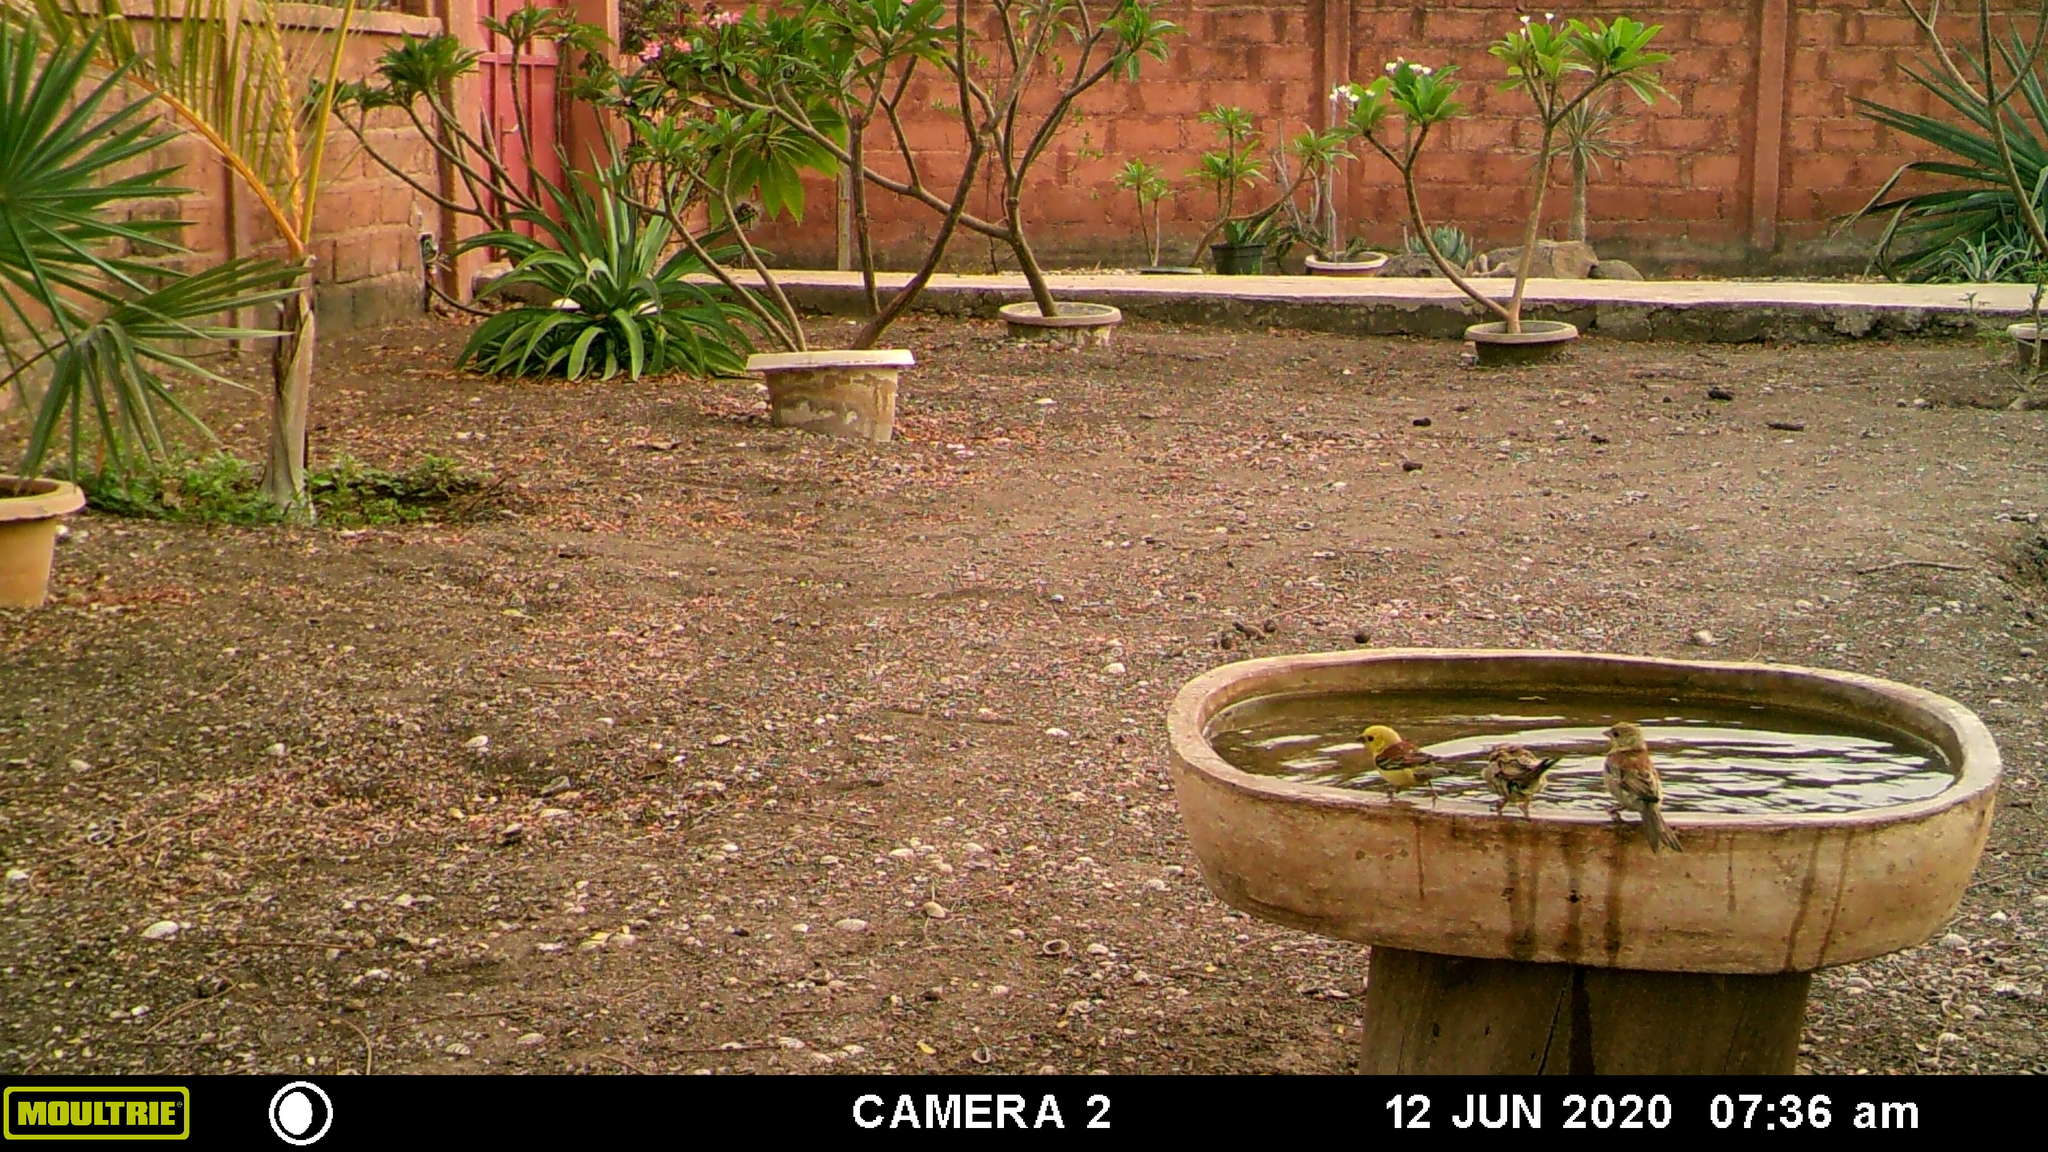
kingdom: Animalia
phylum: Chordata
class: Aves
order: Passeriformes
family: Passeridae
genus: Passer
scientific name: Passer luteus
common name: Sudan golden sparrow
